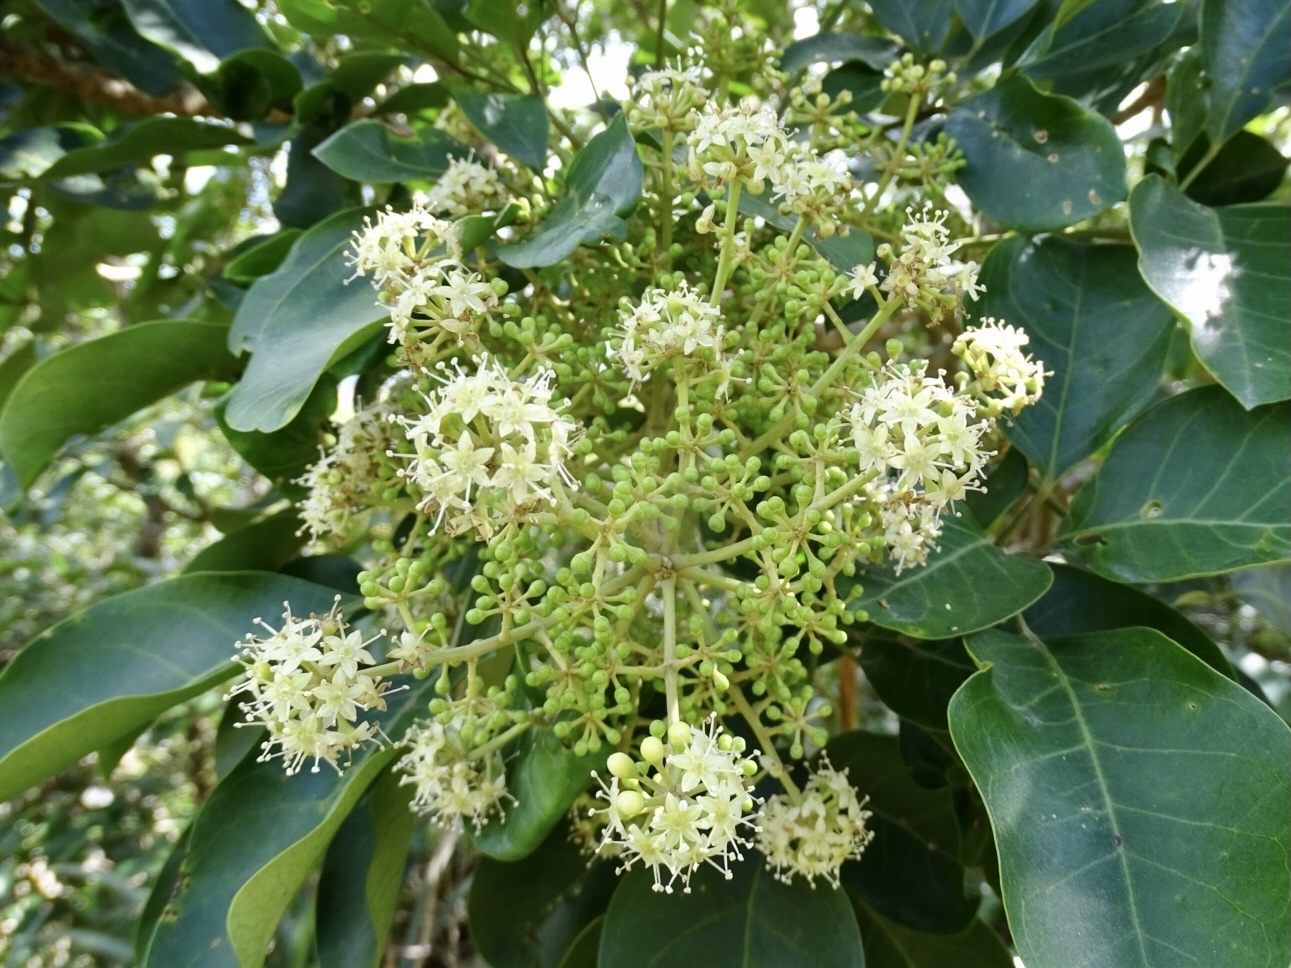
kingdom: Plantae
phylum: Tracheophyta
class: Magnoliopsida
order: Apiales
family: Araliaceae
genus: Heptapleurum
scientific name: Heptapleurum heptaphyllum
